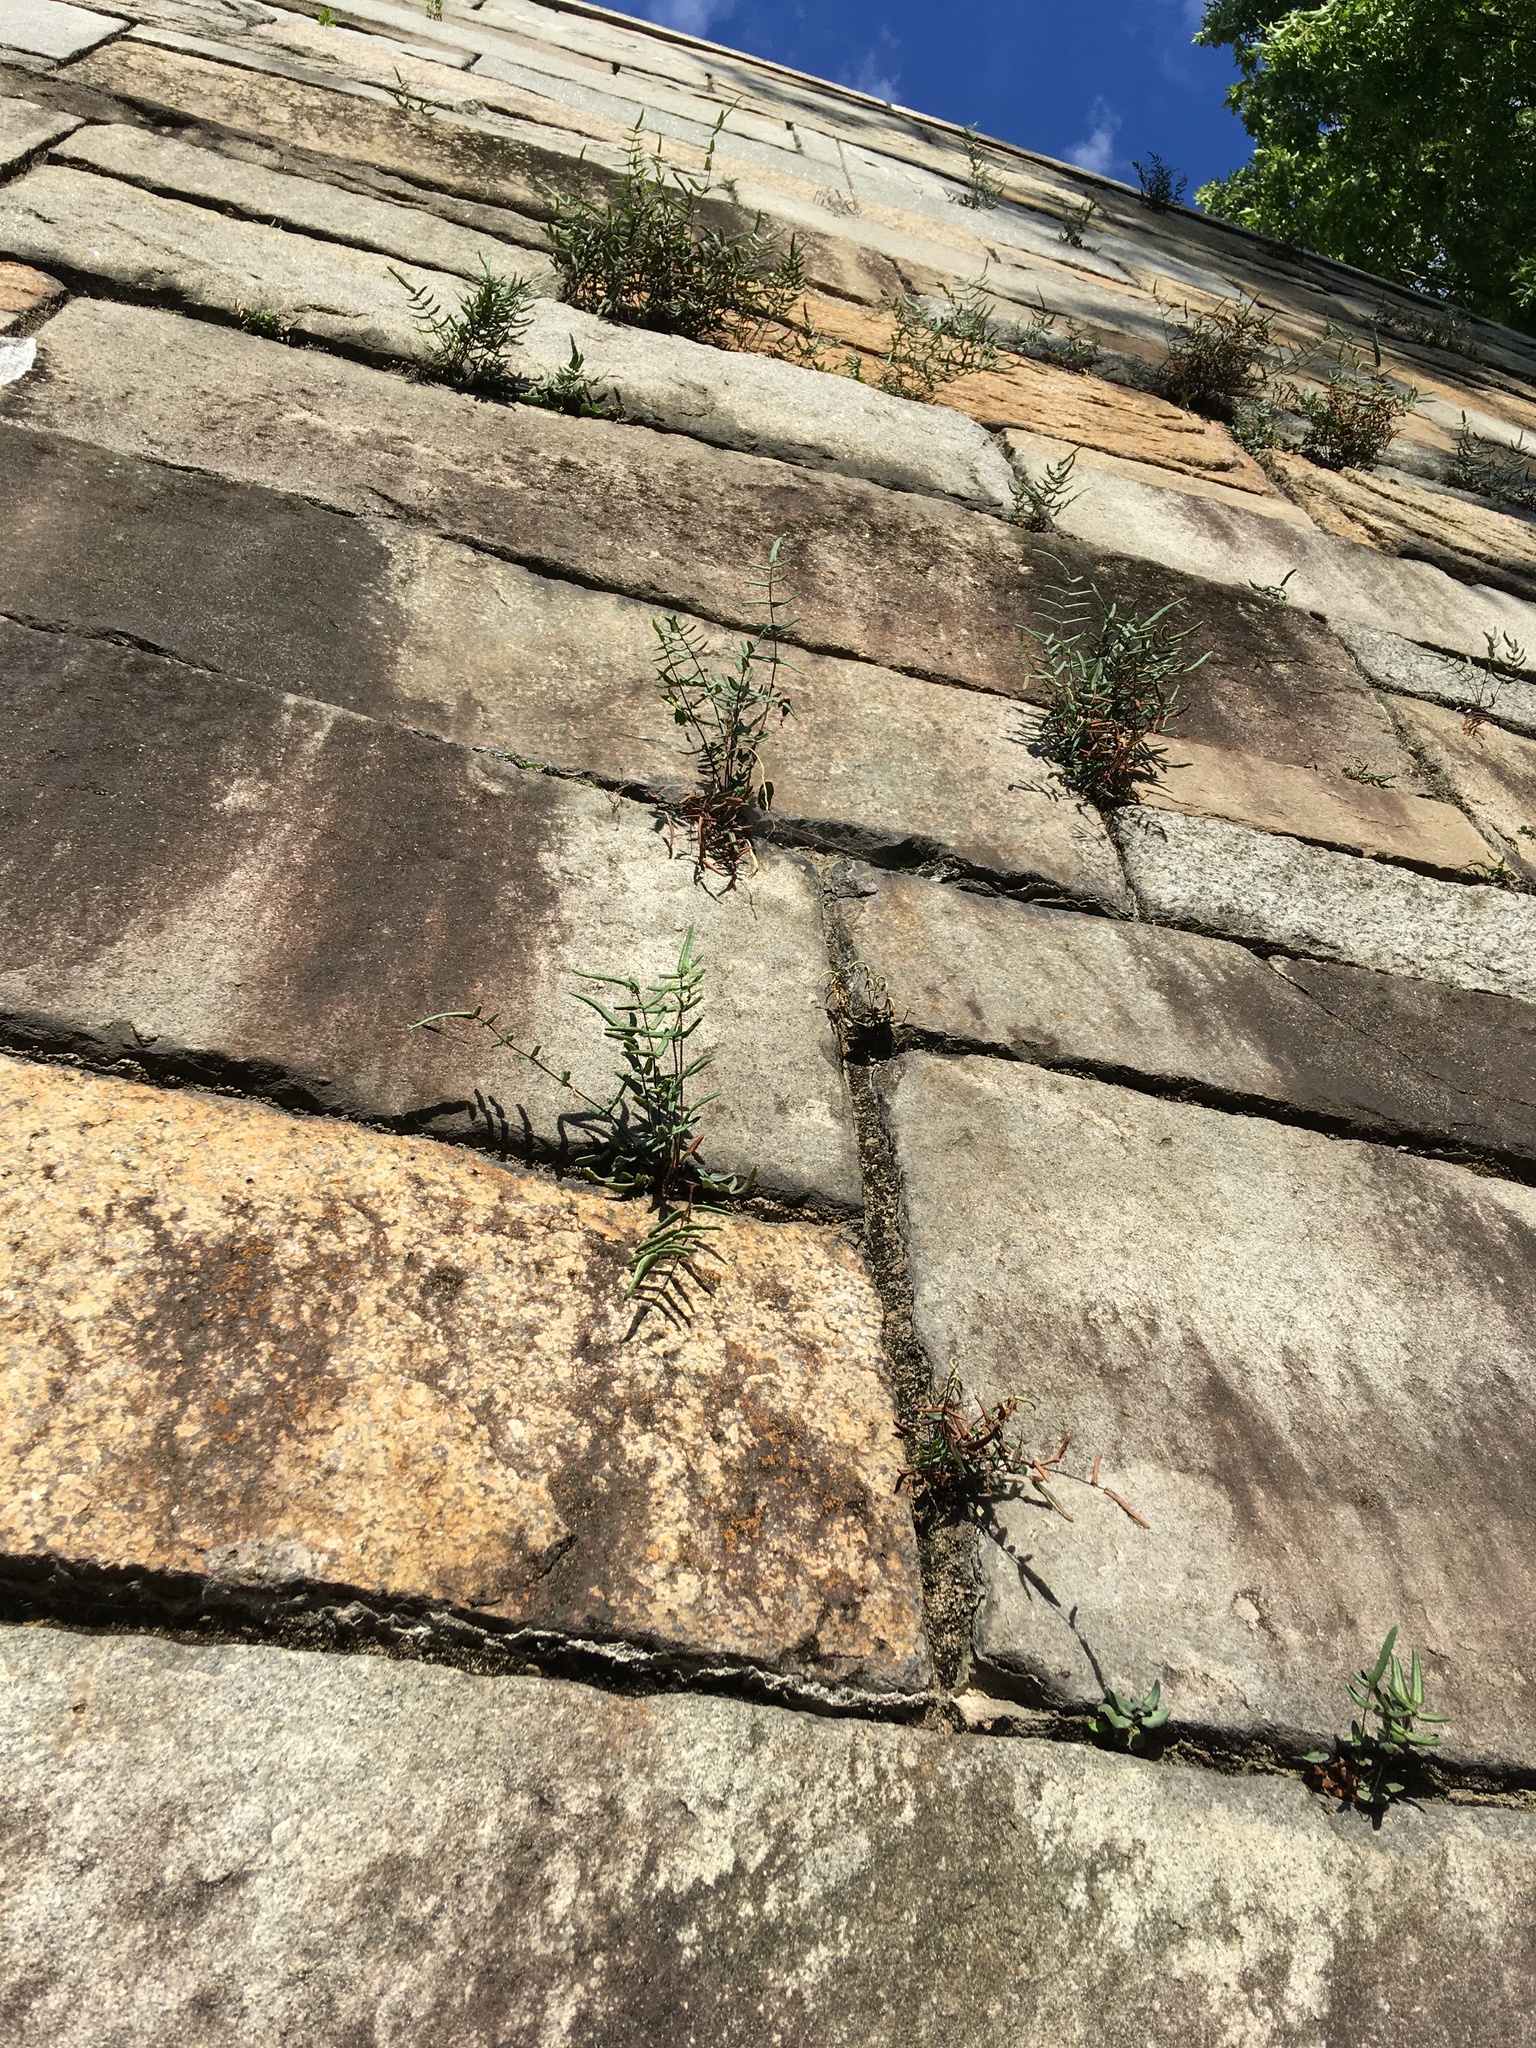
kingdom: Plantae
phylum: Tracheophyta
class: Polypodiopsida
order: Polypodiales
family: Pteridaceae
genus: Pellaea
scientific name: Pellaea atropurpurea
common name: Hairy cliffbrake
